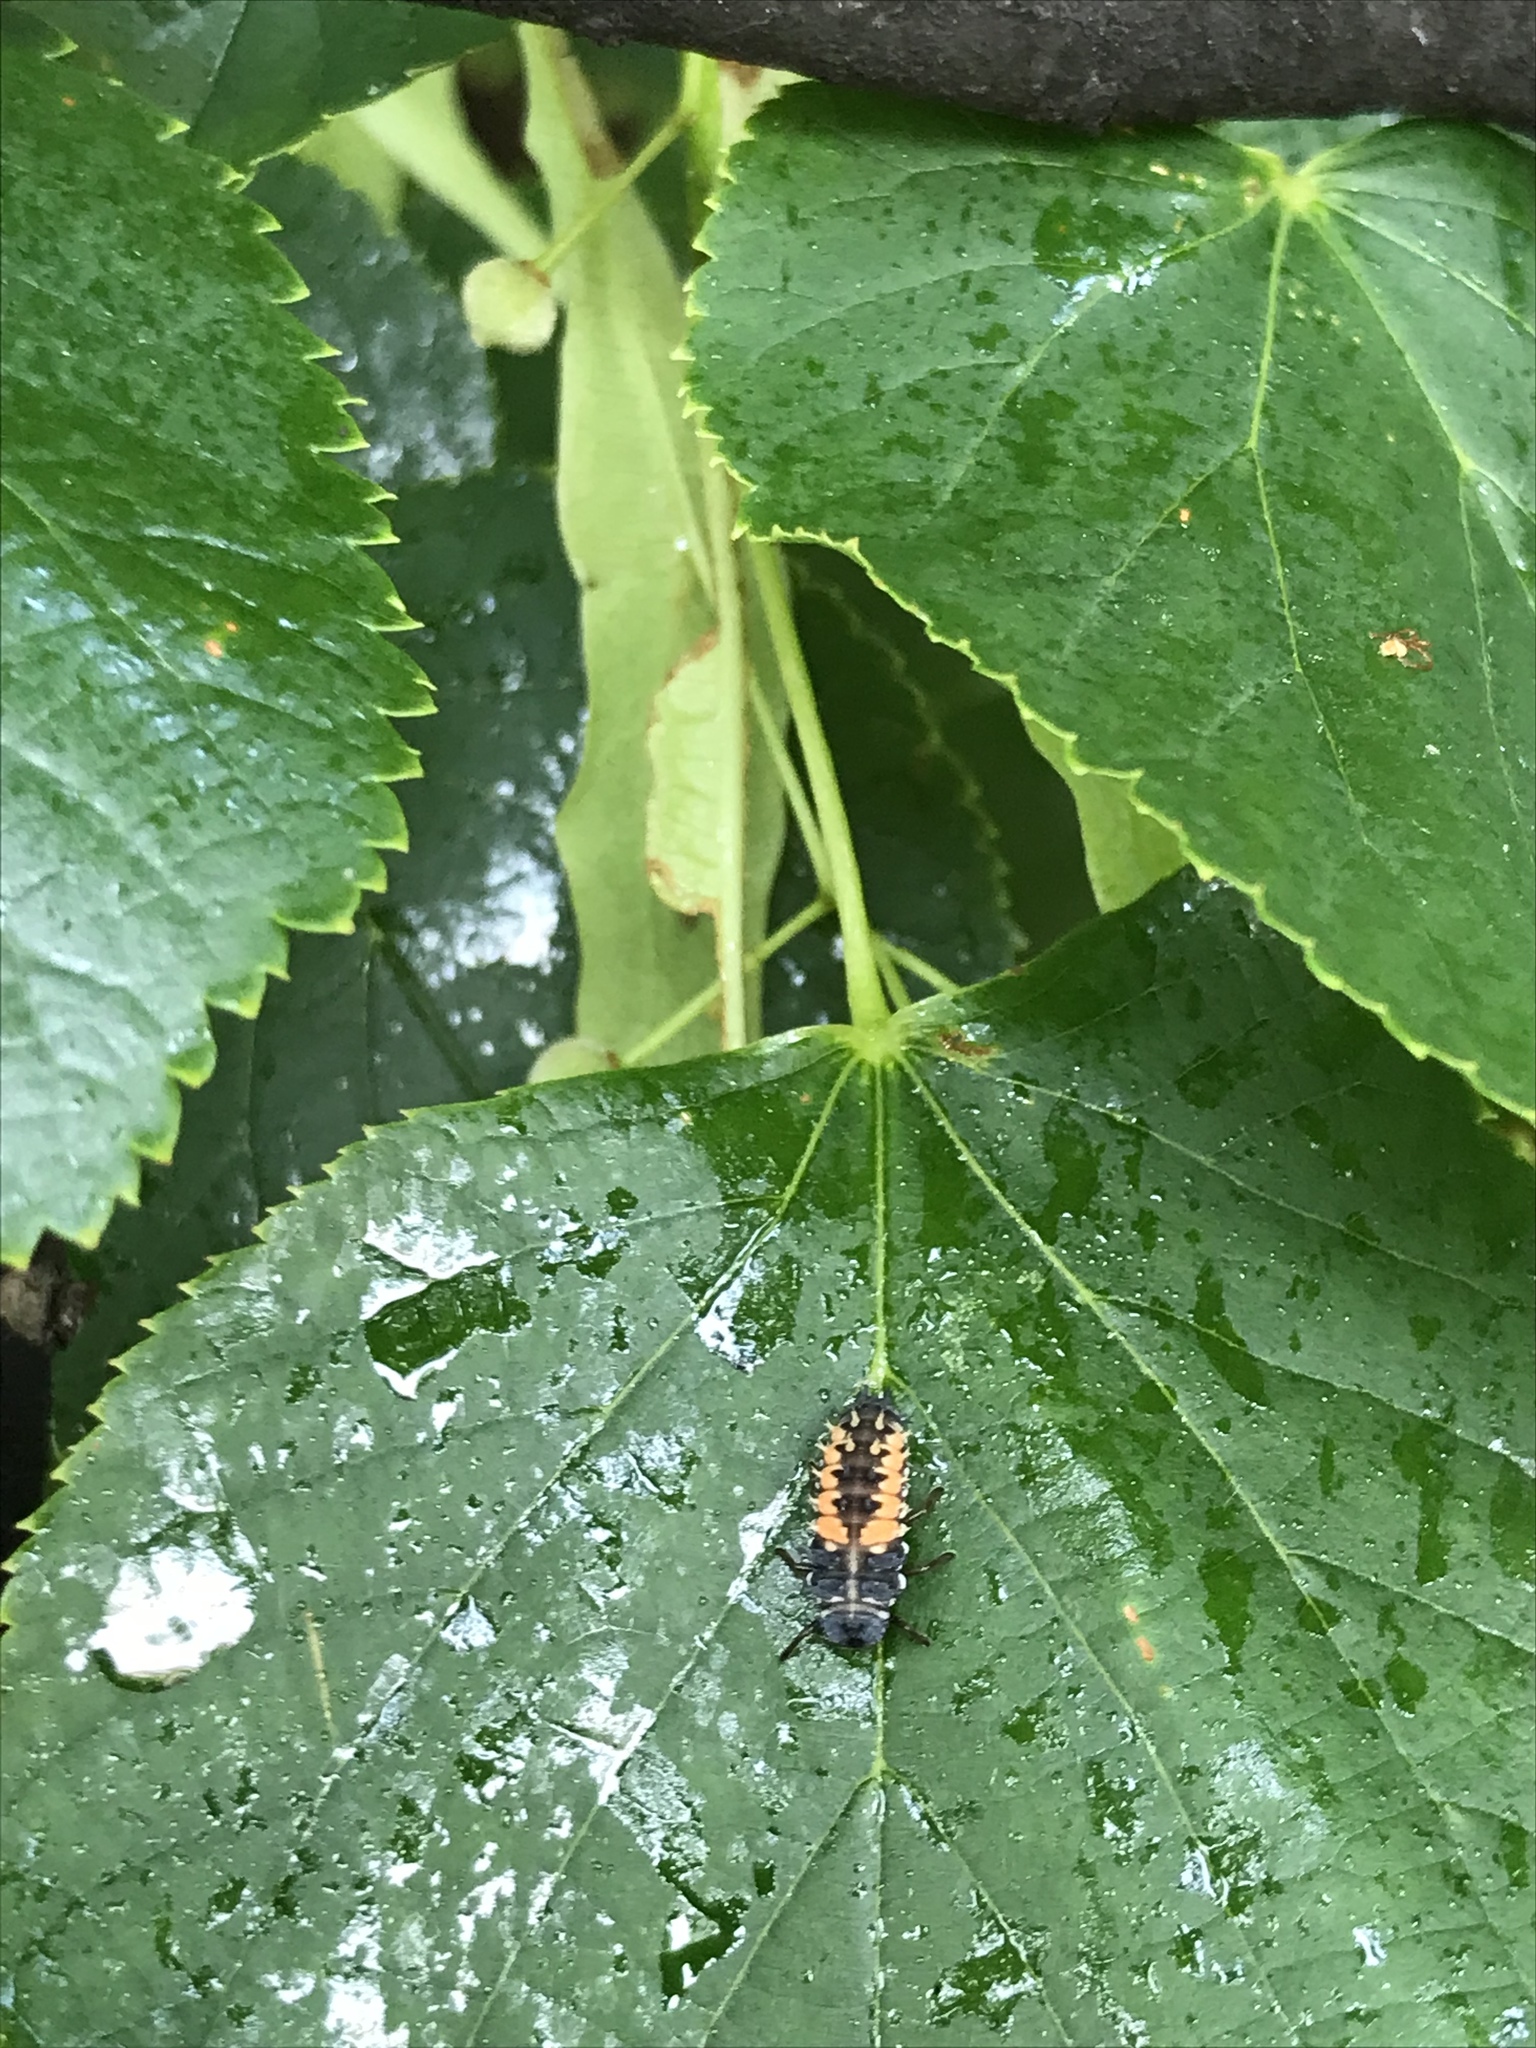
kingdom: Animalia
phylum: Arthropoda
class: Insecta
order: Coleoptera
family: Coccinellidae
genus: Harmonia
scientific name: Harmonia axyridis
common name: Harlequin ladybird
